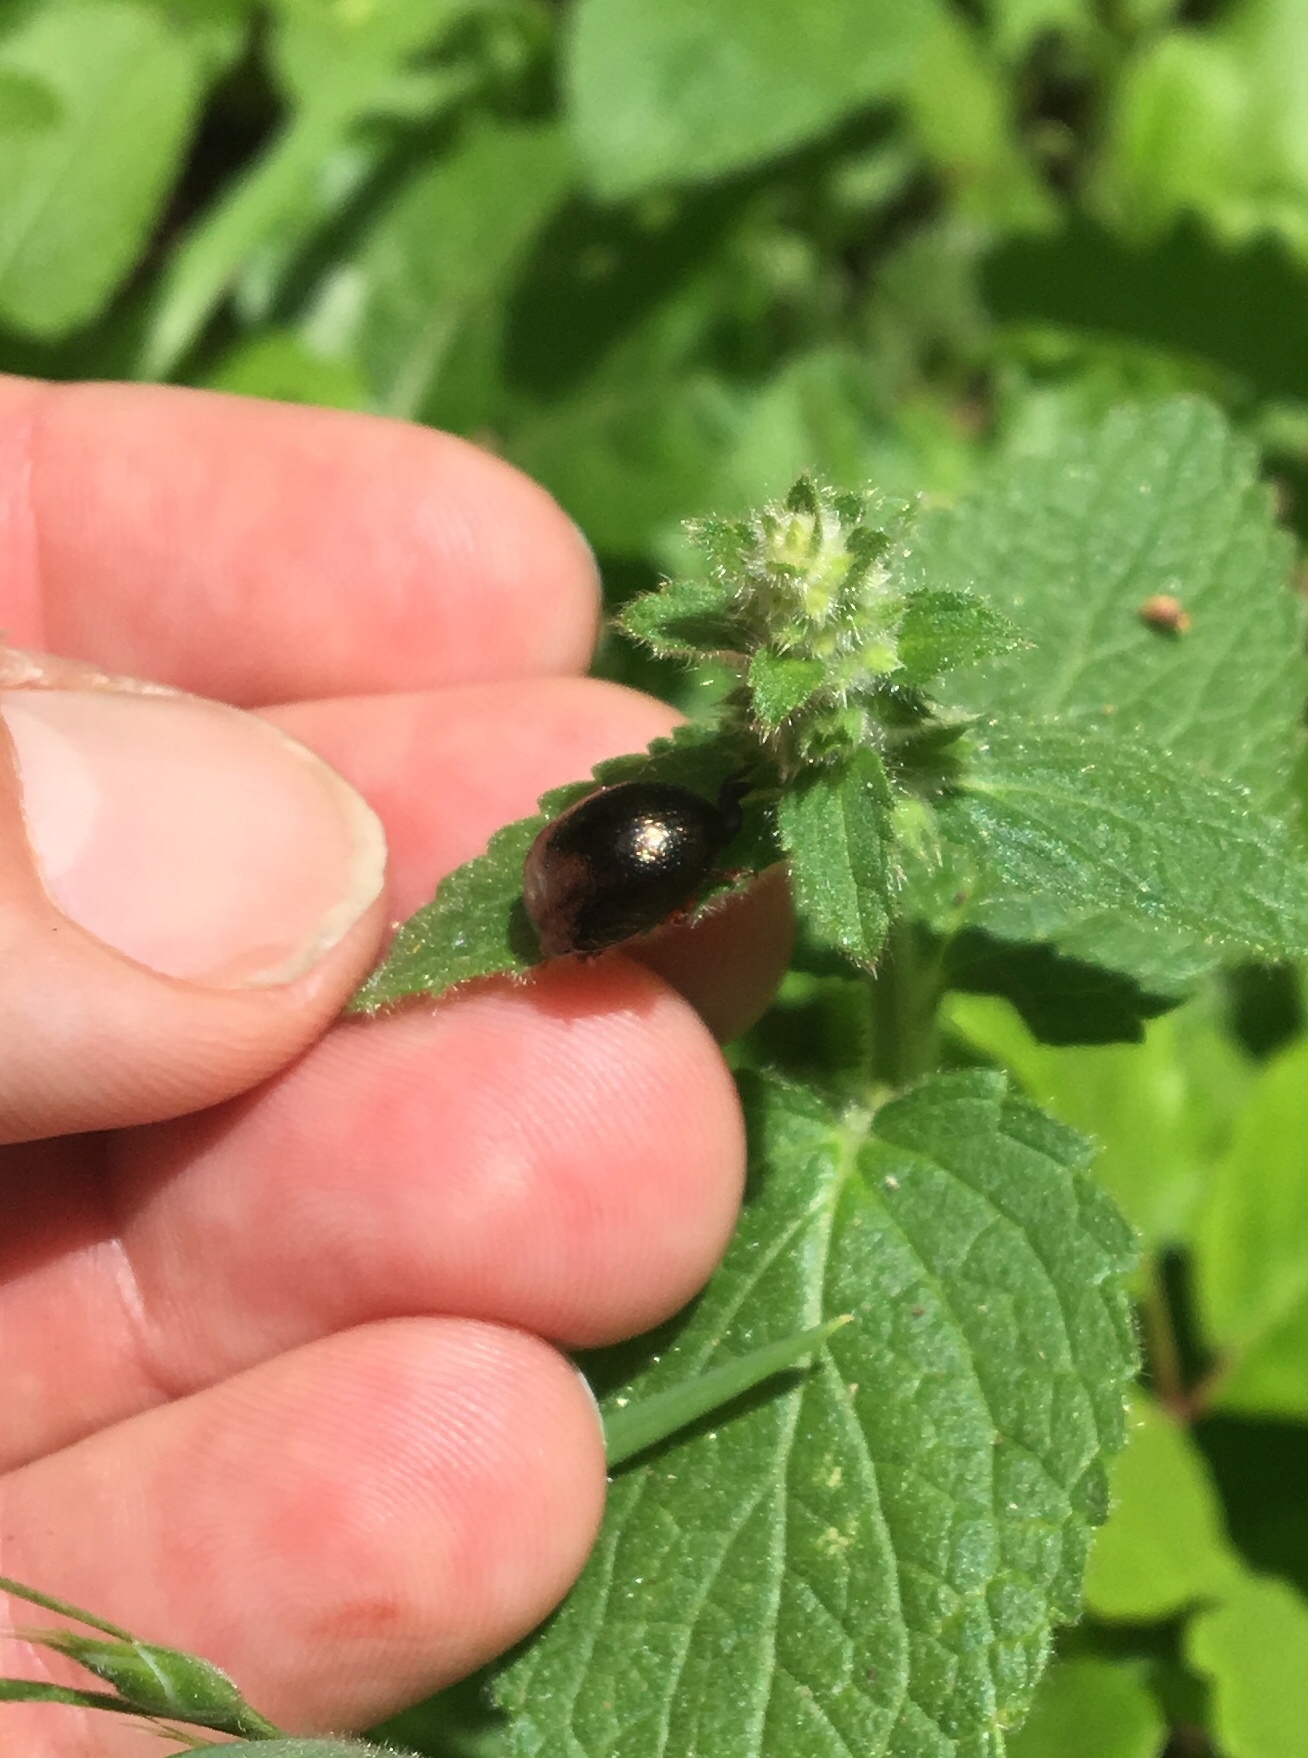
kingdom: Animalia
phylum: Arthropoda
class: Insecta
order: Coleoptera
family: Chrysomelidae
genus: Chrysolina
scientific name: Chrysolina bankii
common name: Leaf beetle
